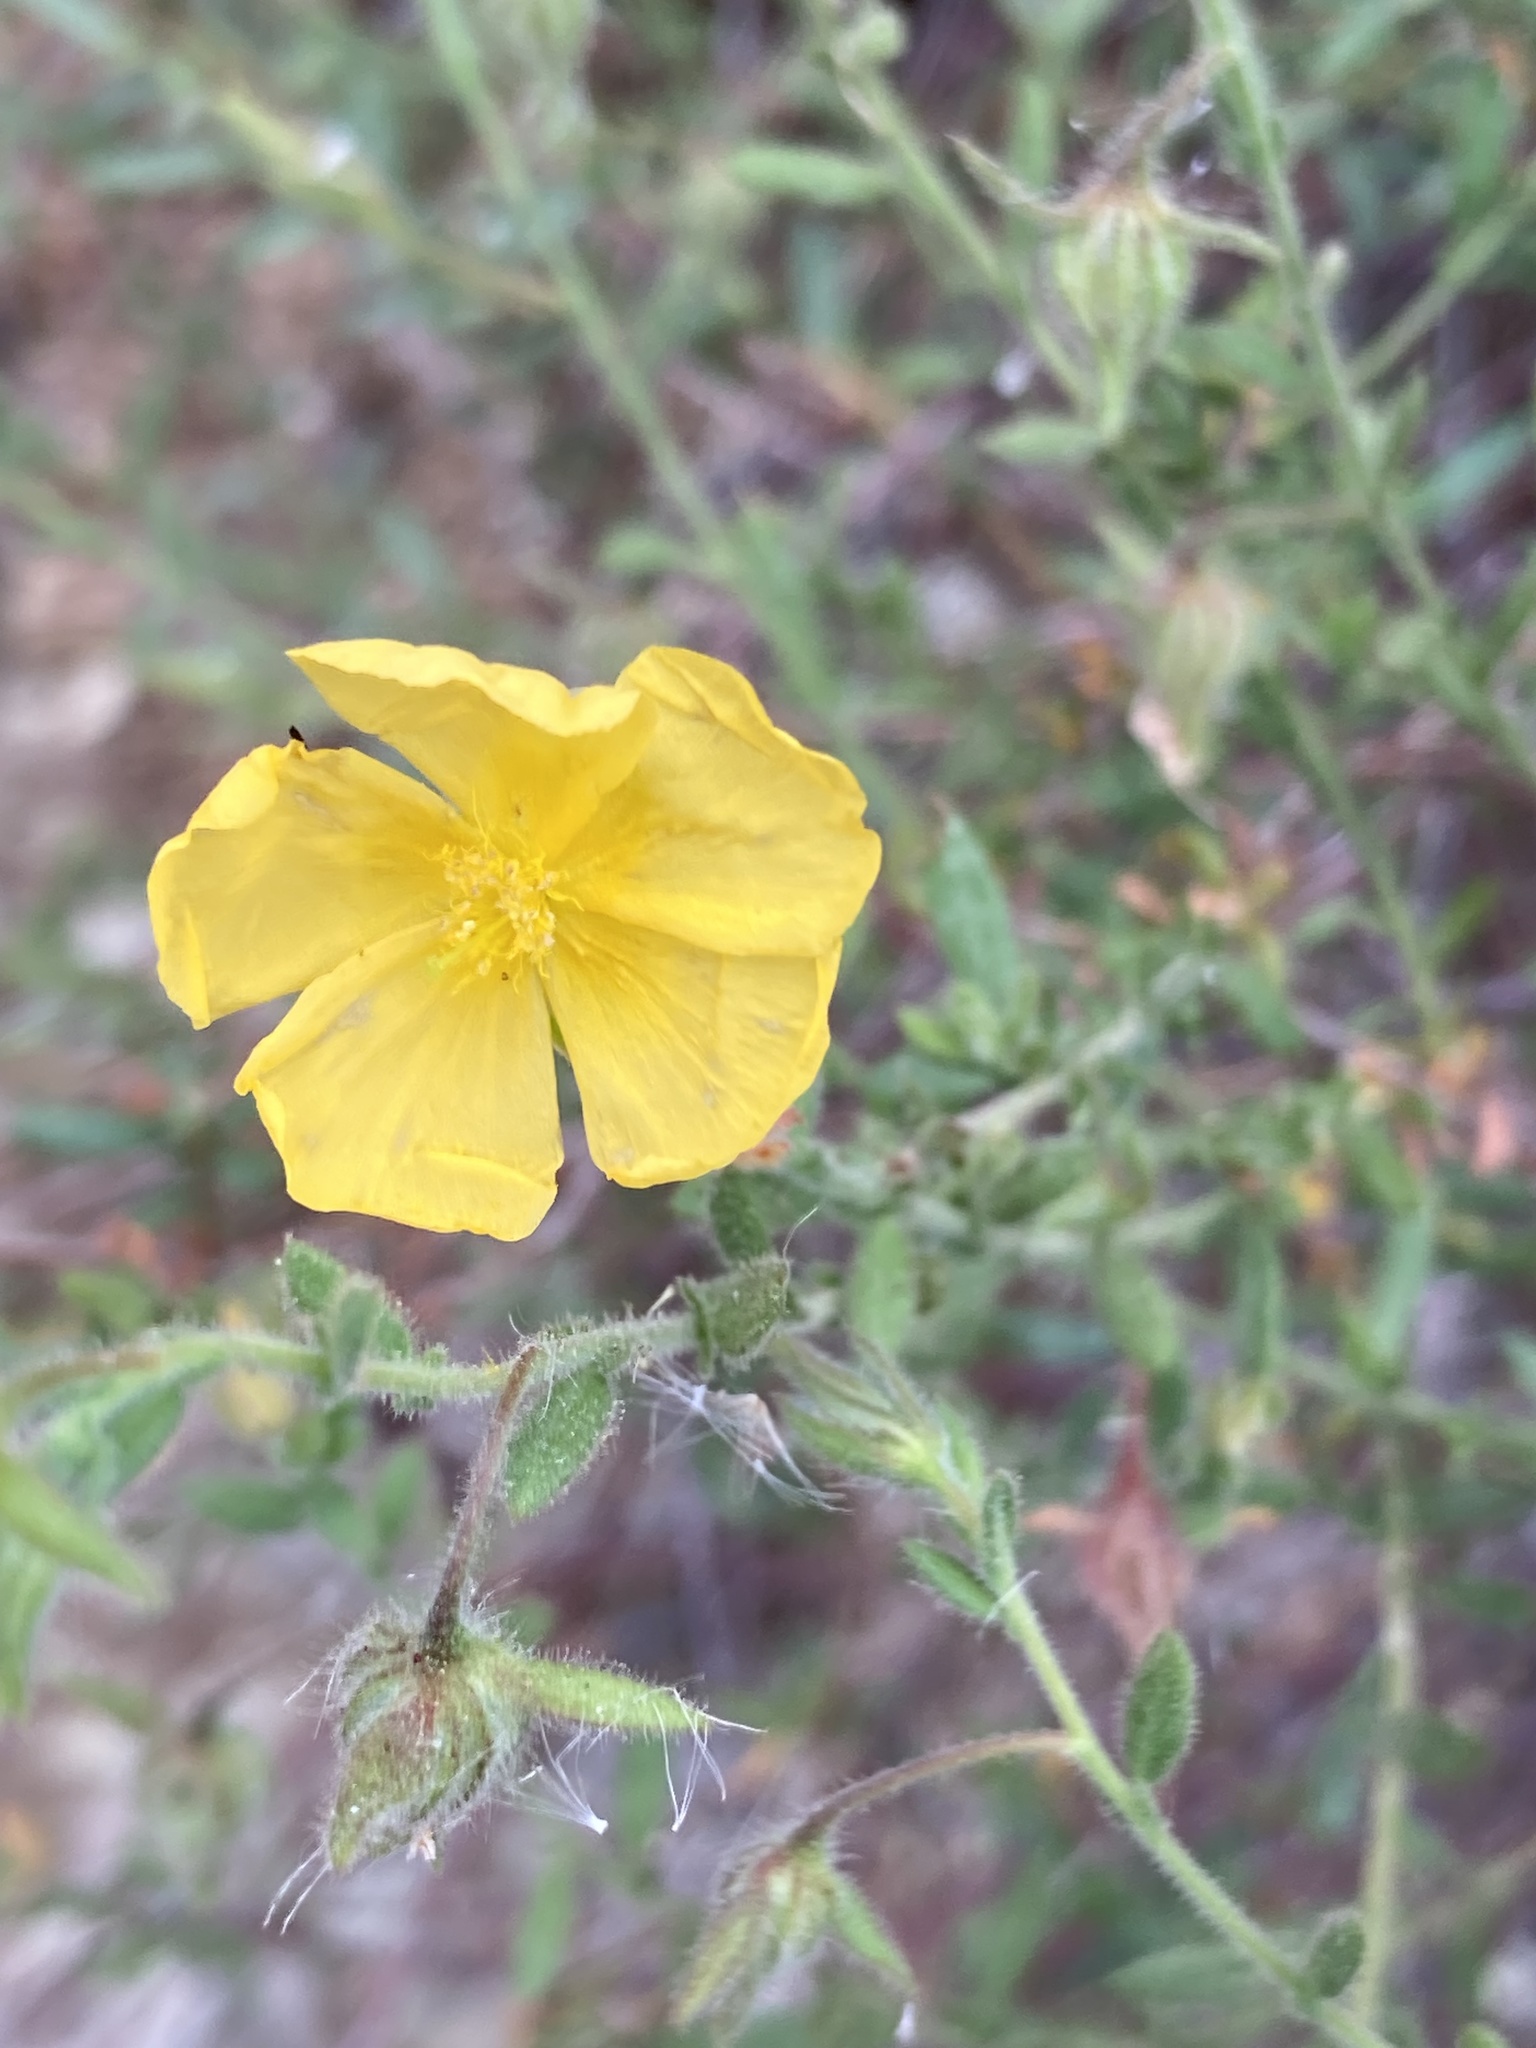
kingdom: Plantae
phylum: Tracheophyta
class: Magnoliopsida
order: Malvales
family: Cistaceae
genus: Fumana
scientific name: Fumana arabica
